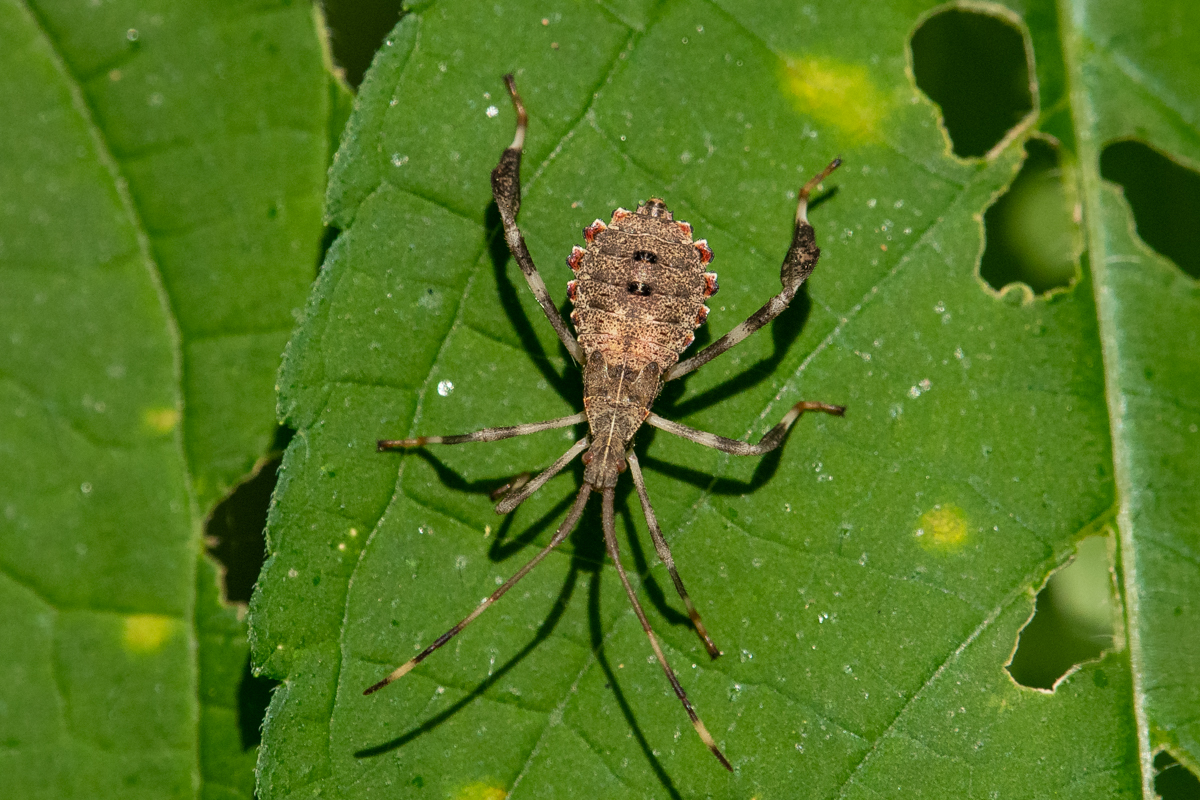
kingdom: Animalia
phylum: Arthropoda
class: Insecta
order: Hemiptera
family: Coreidae
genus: Acanthocephala
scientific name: Acanthocephala terminalis
